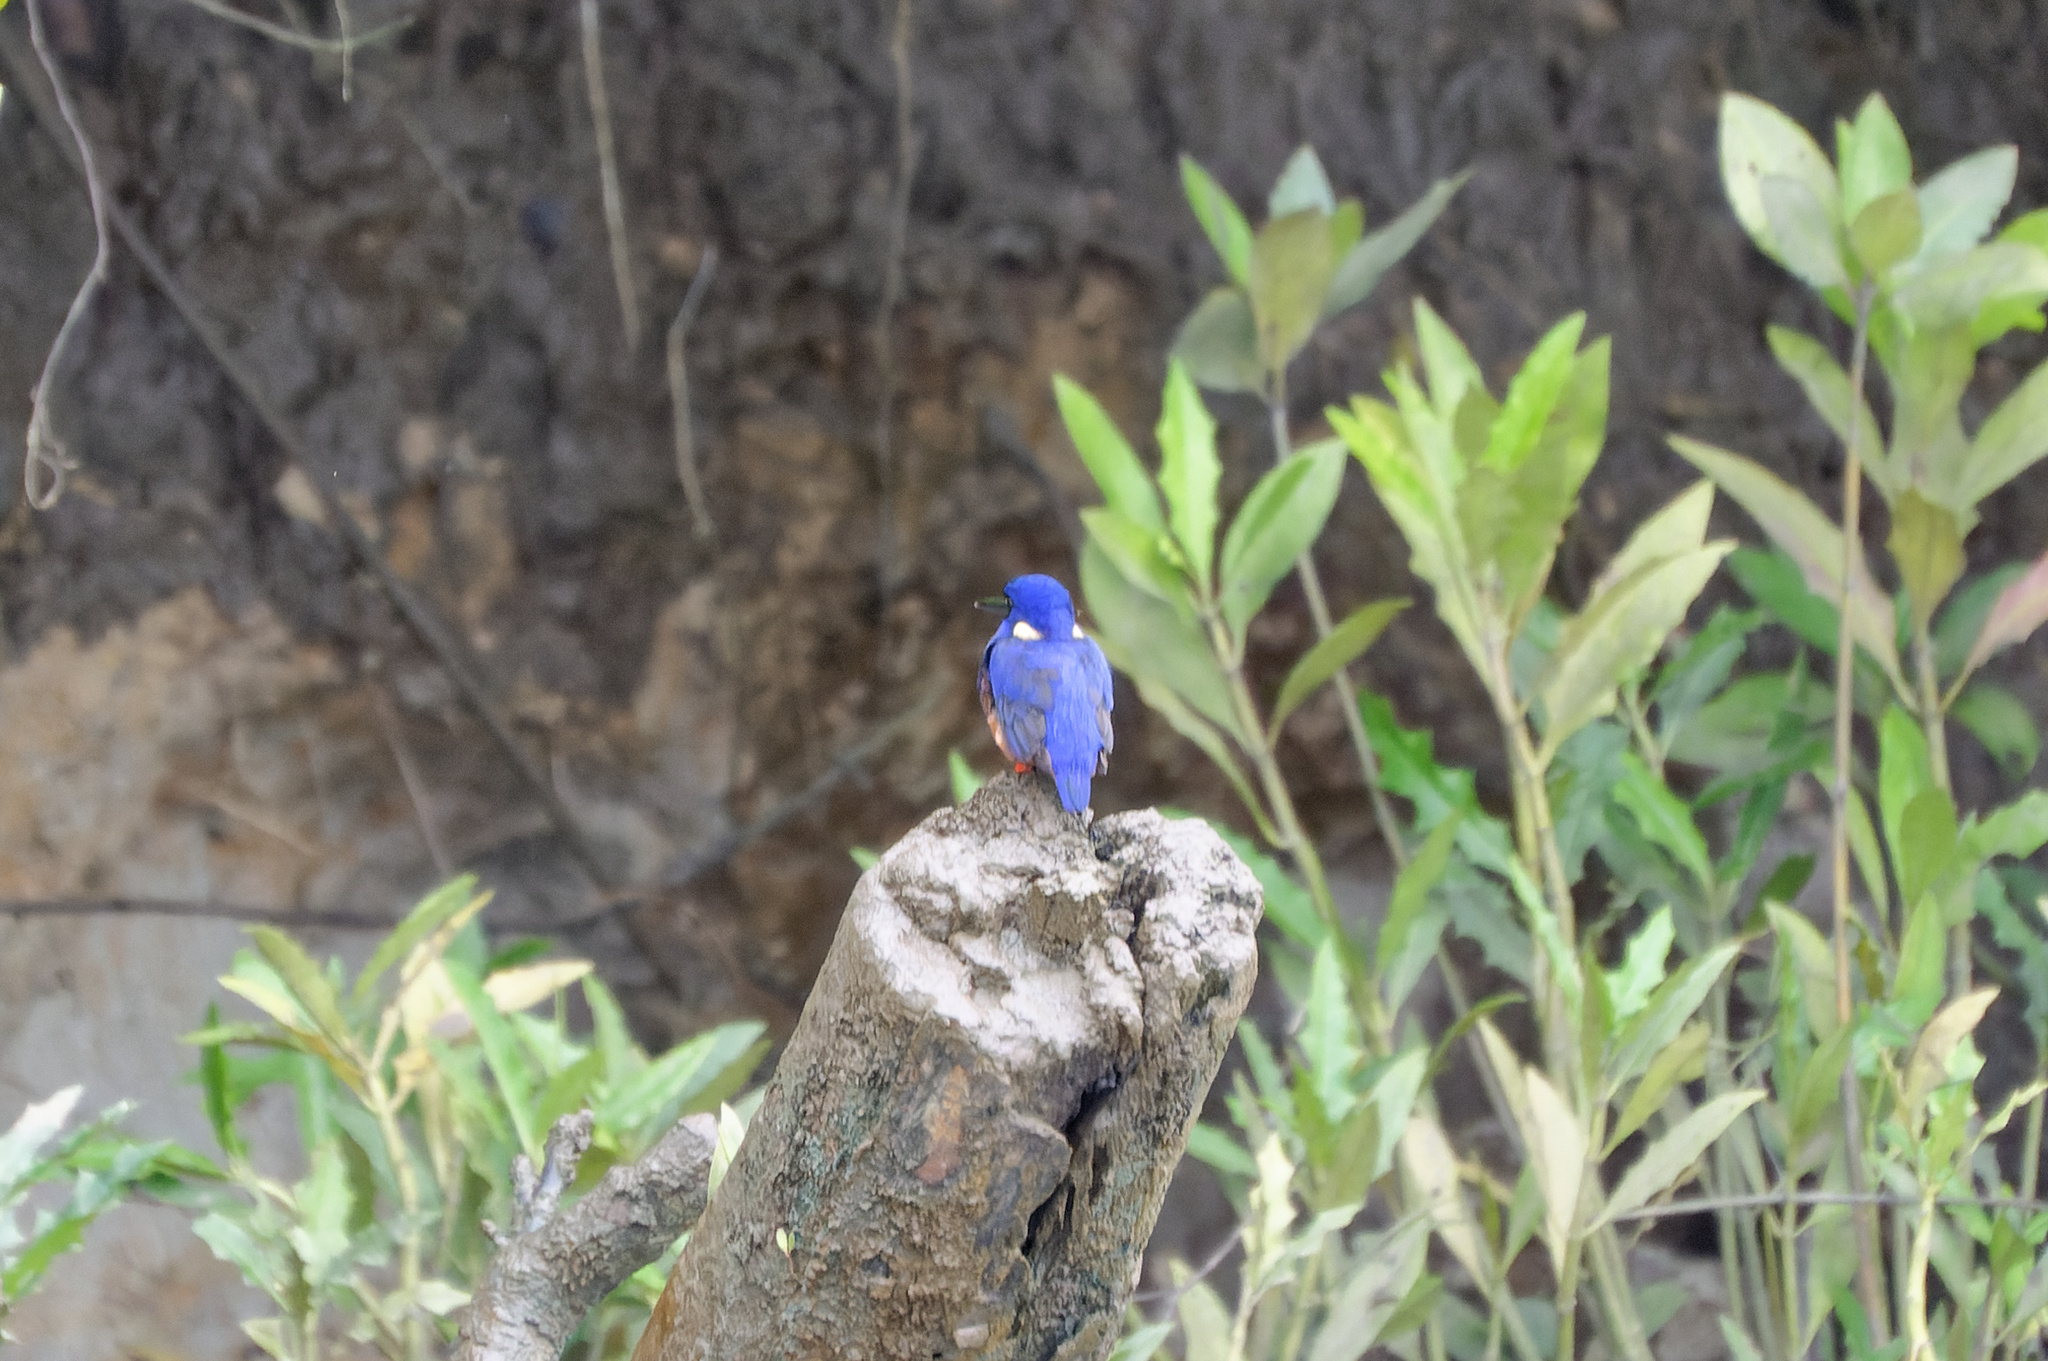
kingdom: Animalia
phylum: Chordata
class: Aves
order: Coraciiformes
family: Alcedinidae
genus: Ceyx
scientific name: Ceyx azureus
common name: Azure kingfisher
